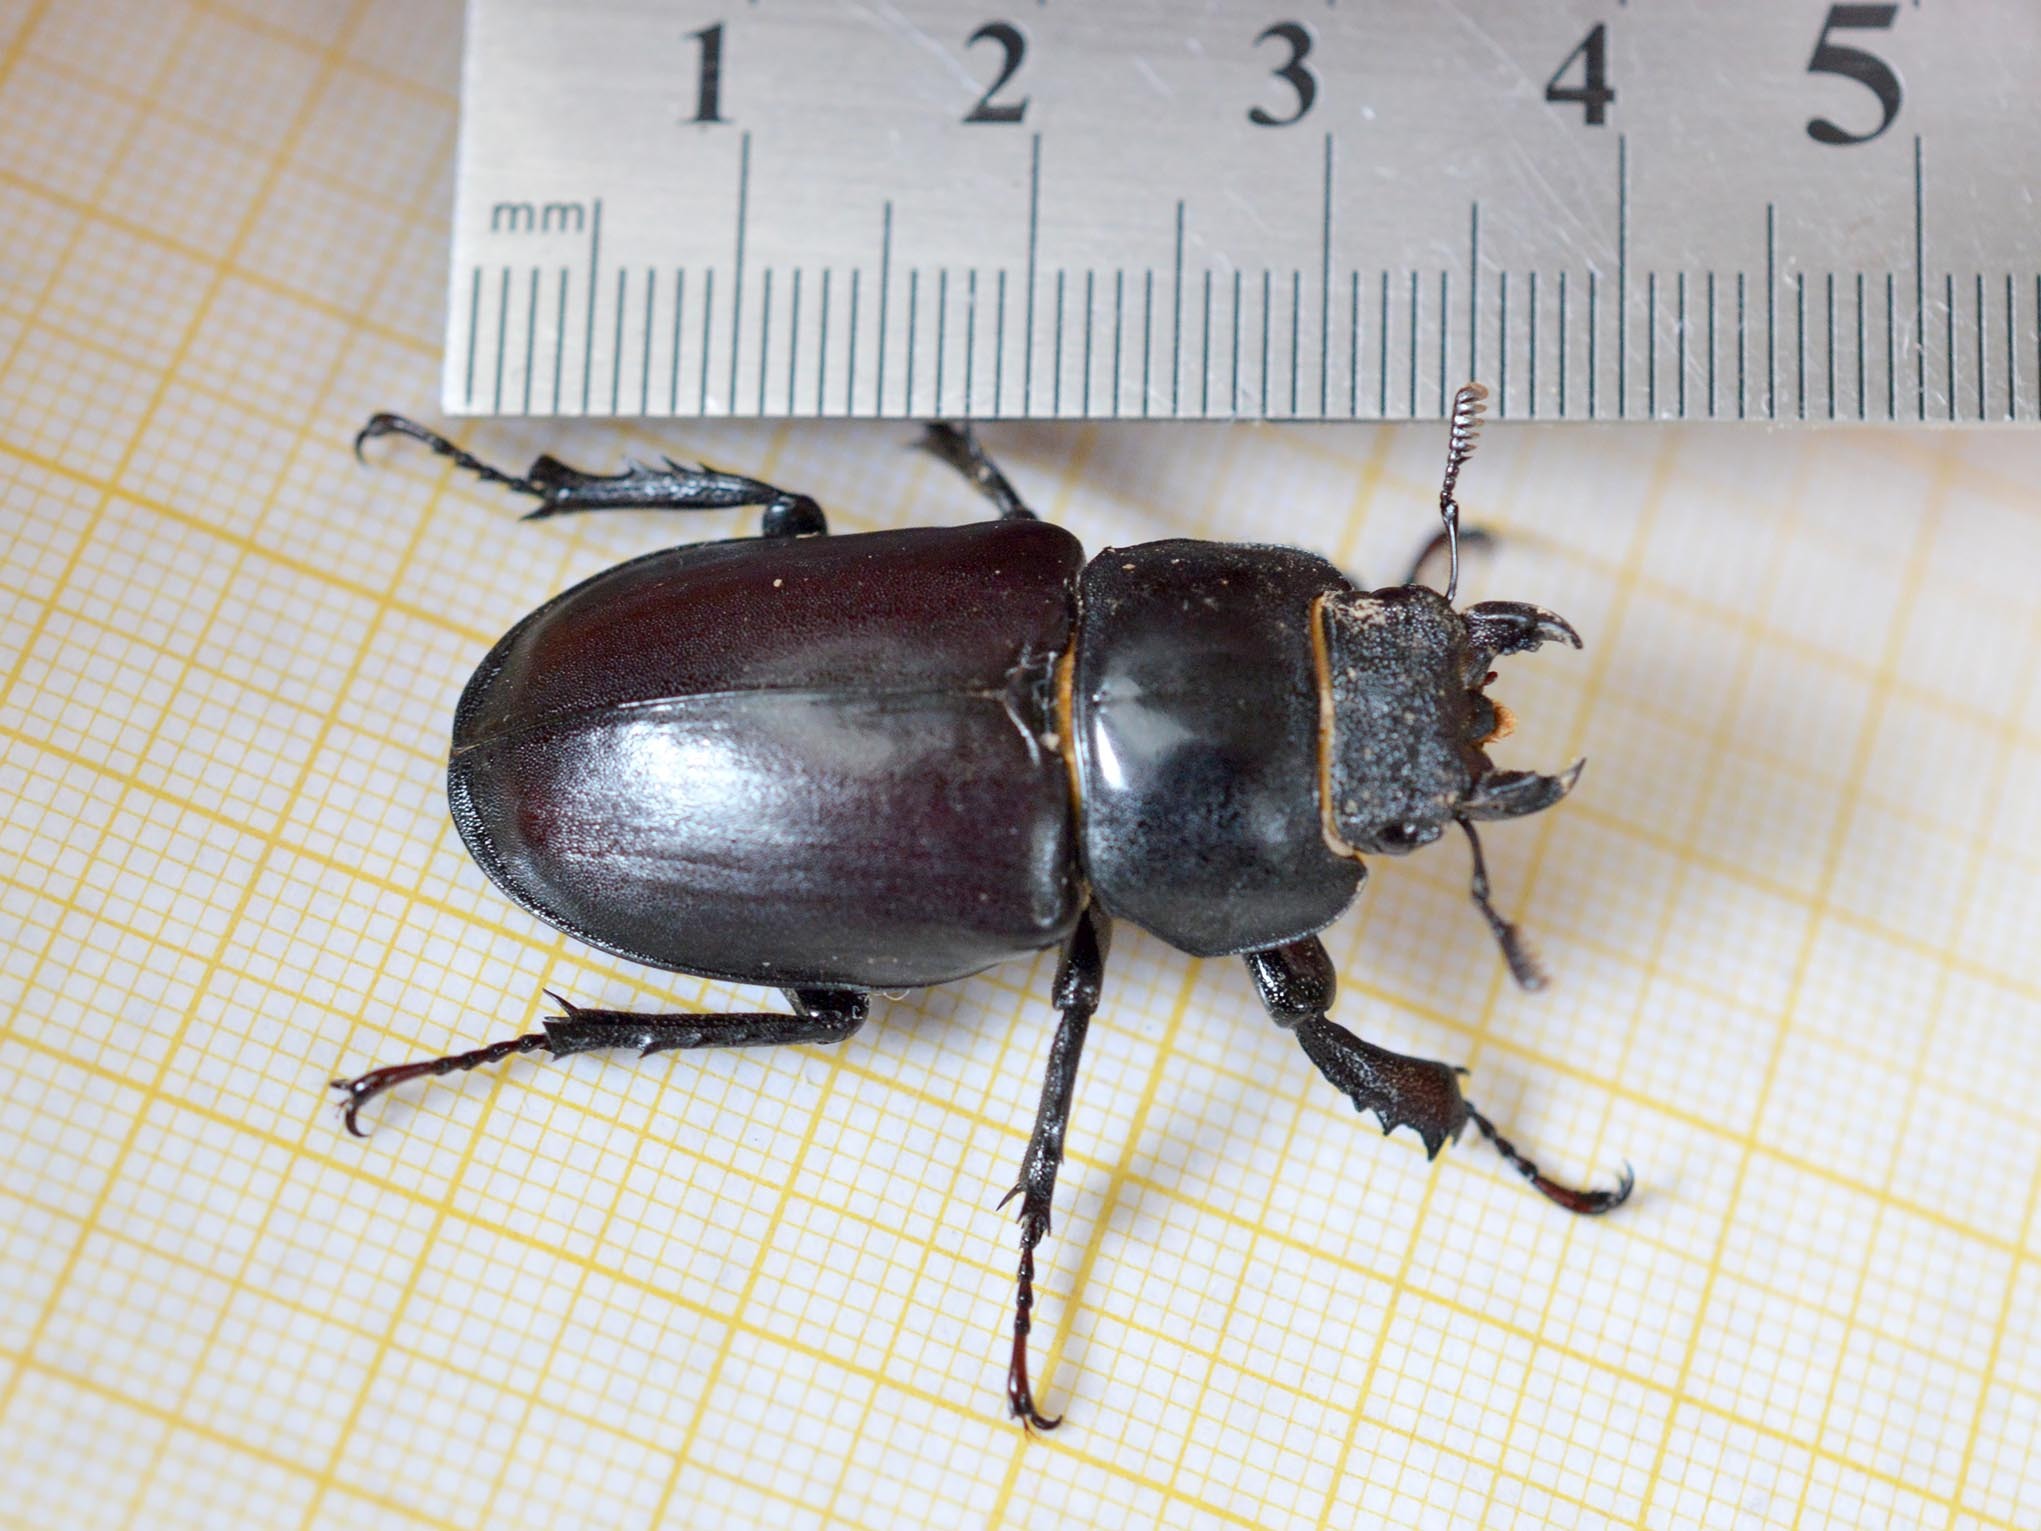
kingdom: Animalia
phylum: Arthropoda
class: Insecta
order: Coleoptera
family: Lucanidae
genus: Lucanus
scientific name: Lucanus cervus
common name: Stag beetle
